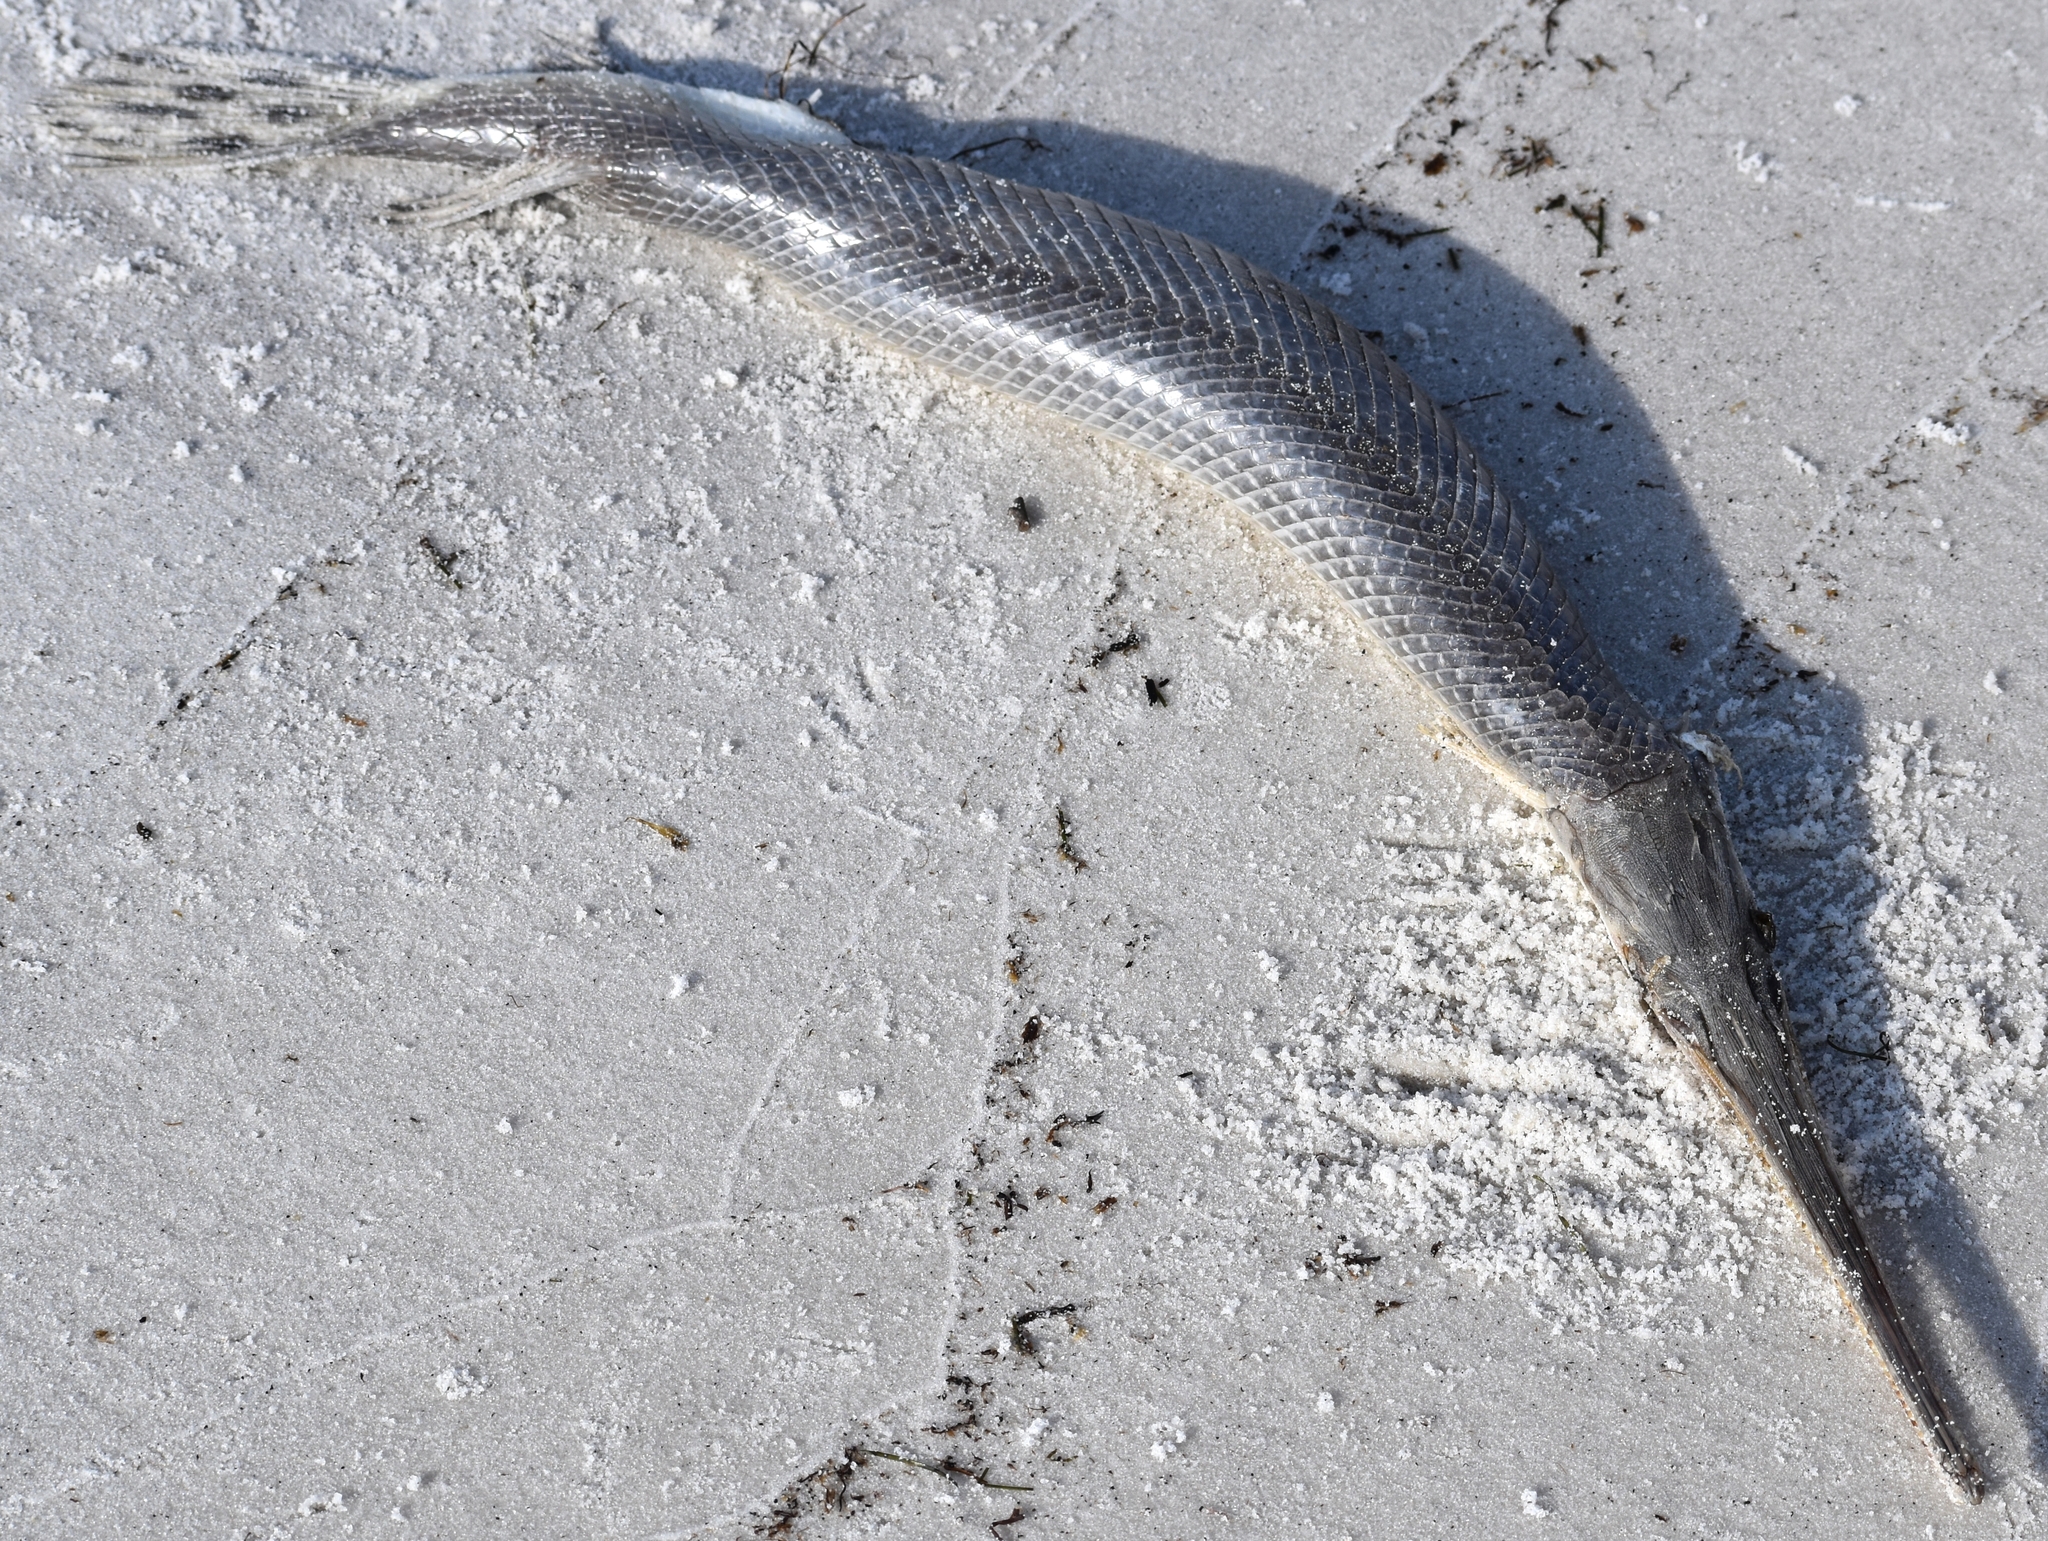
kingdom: Animalia
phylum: Chordata
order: Lepisosteiformes
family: Lepisosteidae
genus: Lepisosteus
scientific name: Lepisosteus osseus
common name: Longnose gar
